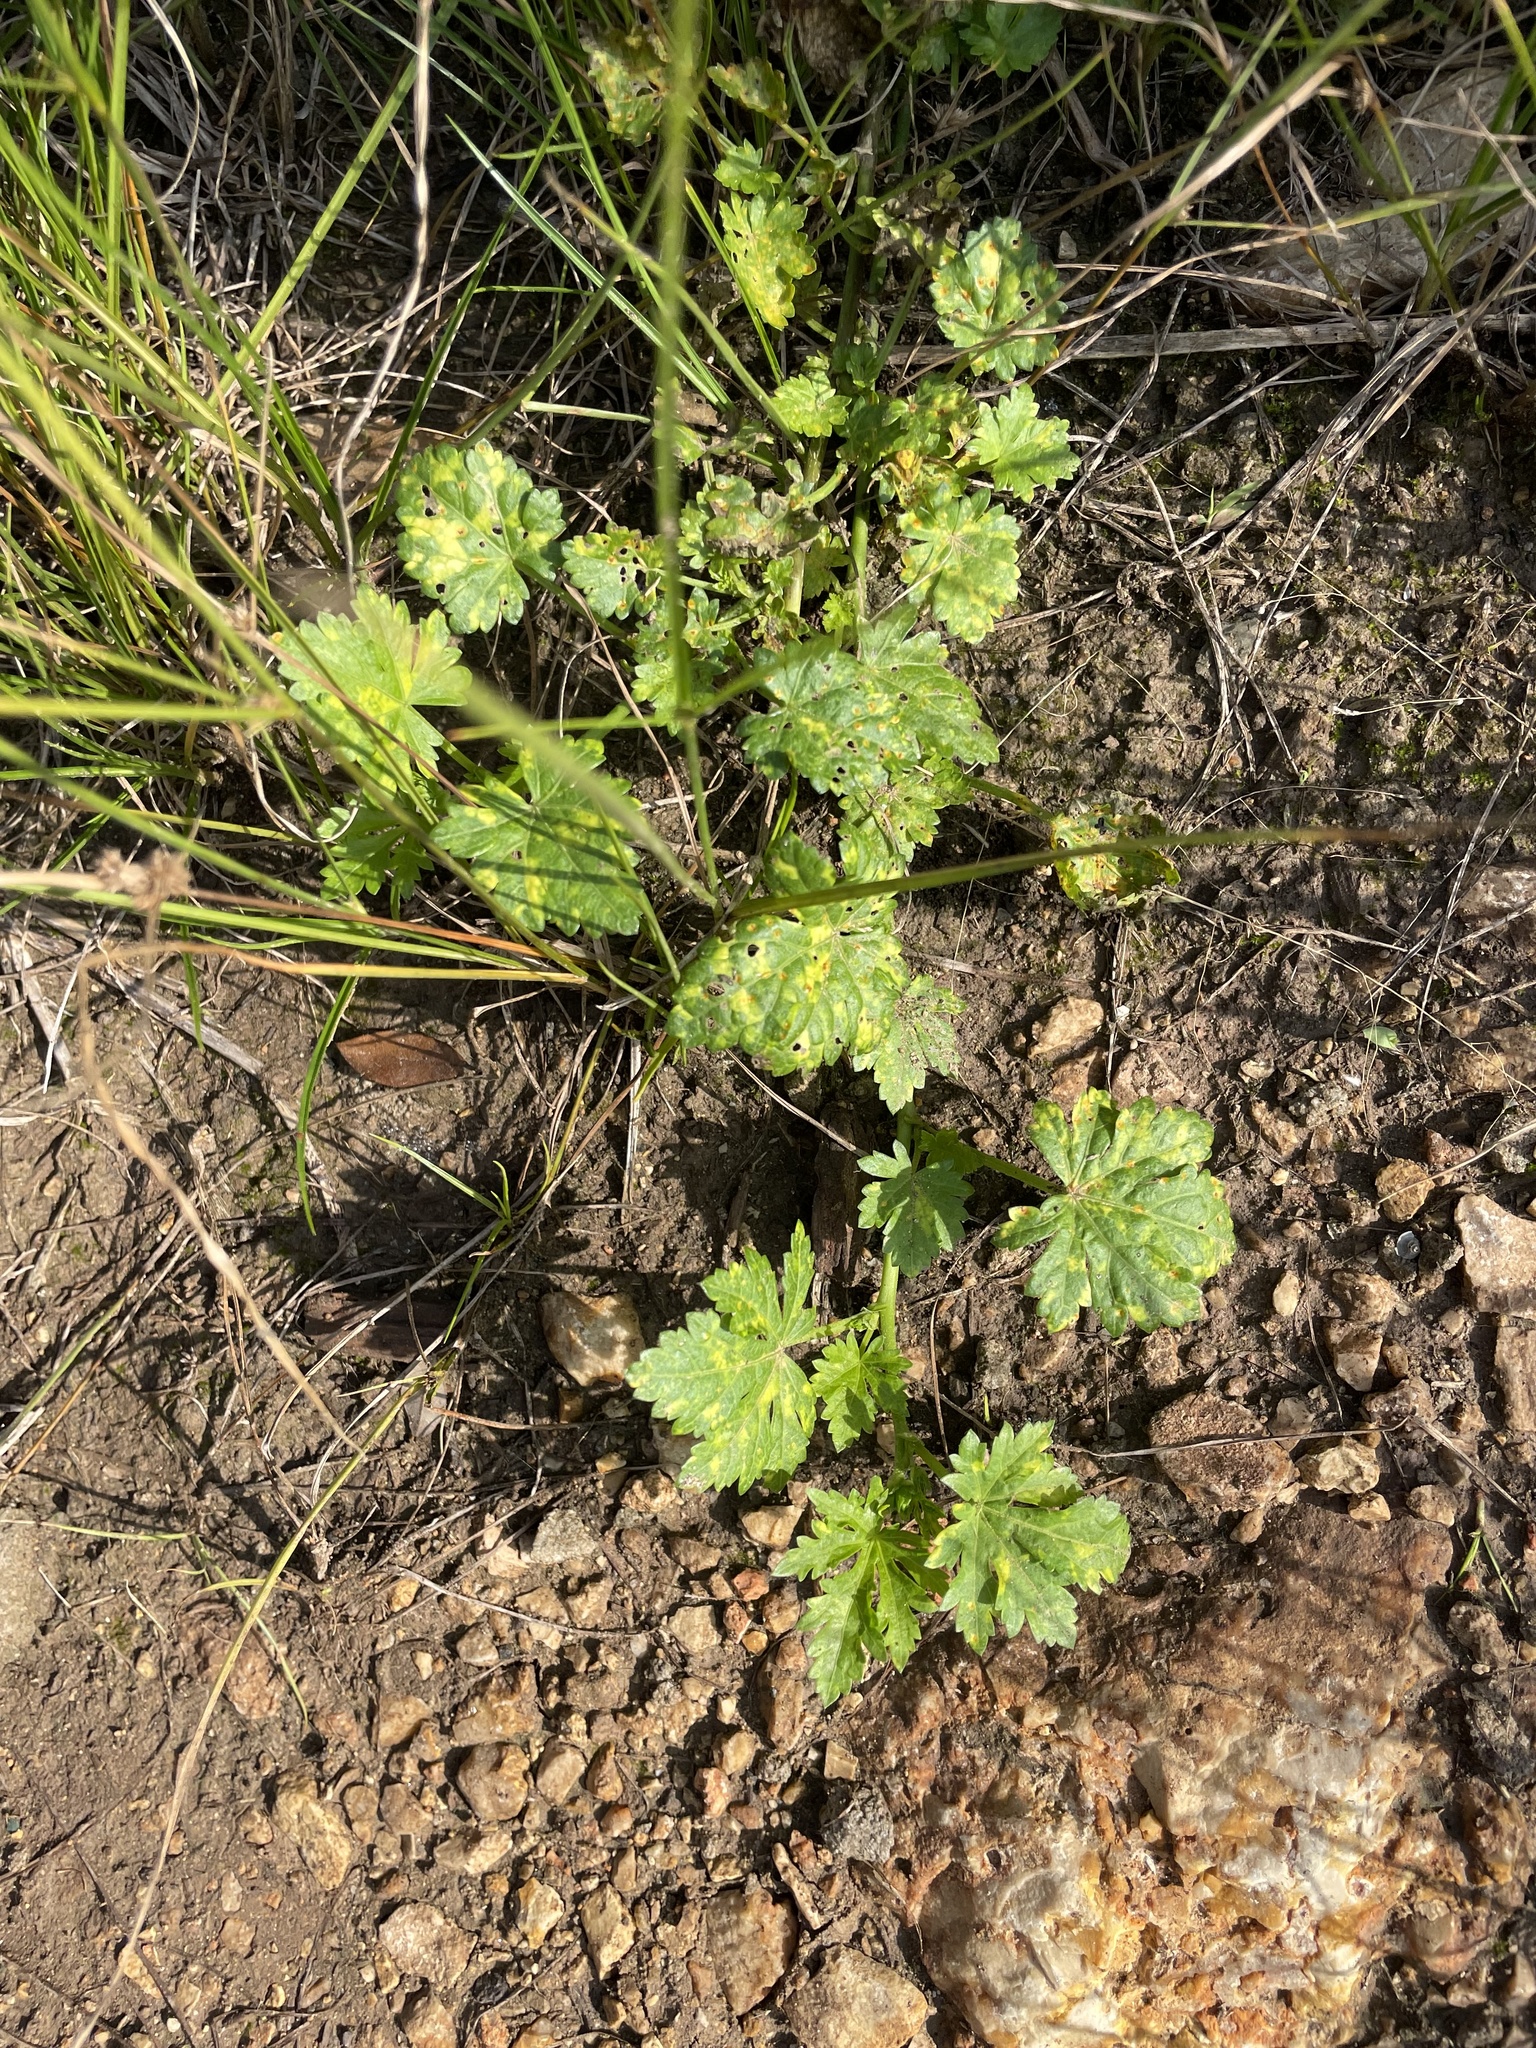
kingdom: Plantae
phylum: Tracheophyta
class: Magnoliopsida
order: Malvales
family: Malvaceae
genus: Modiola
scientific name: Modiola caroliniana
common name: Carolina bristlemallow
